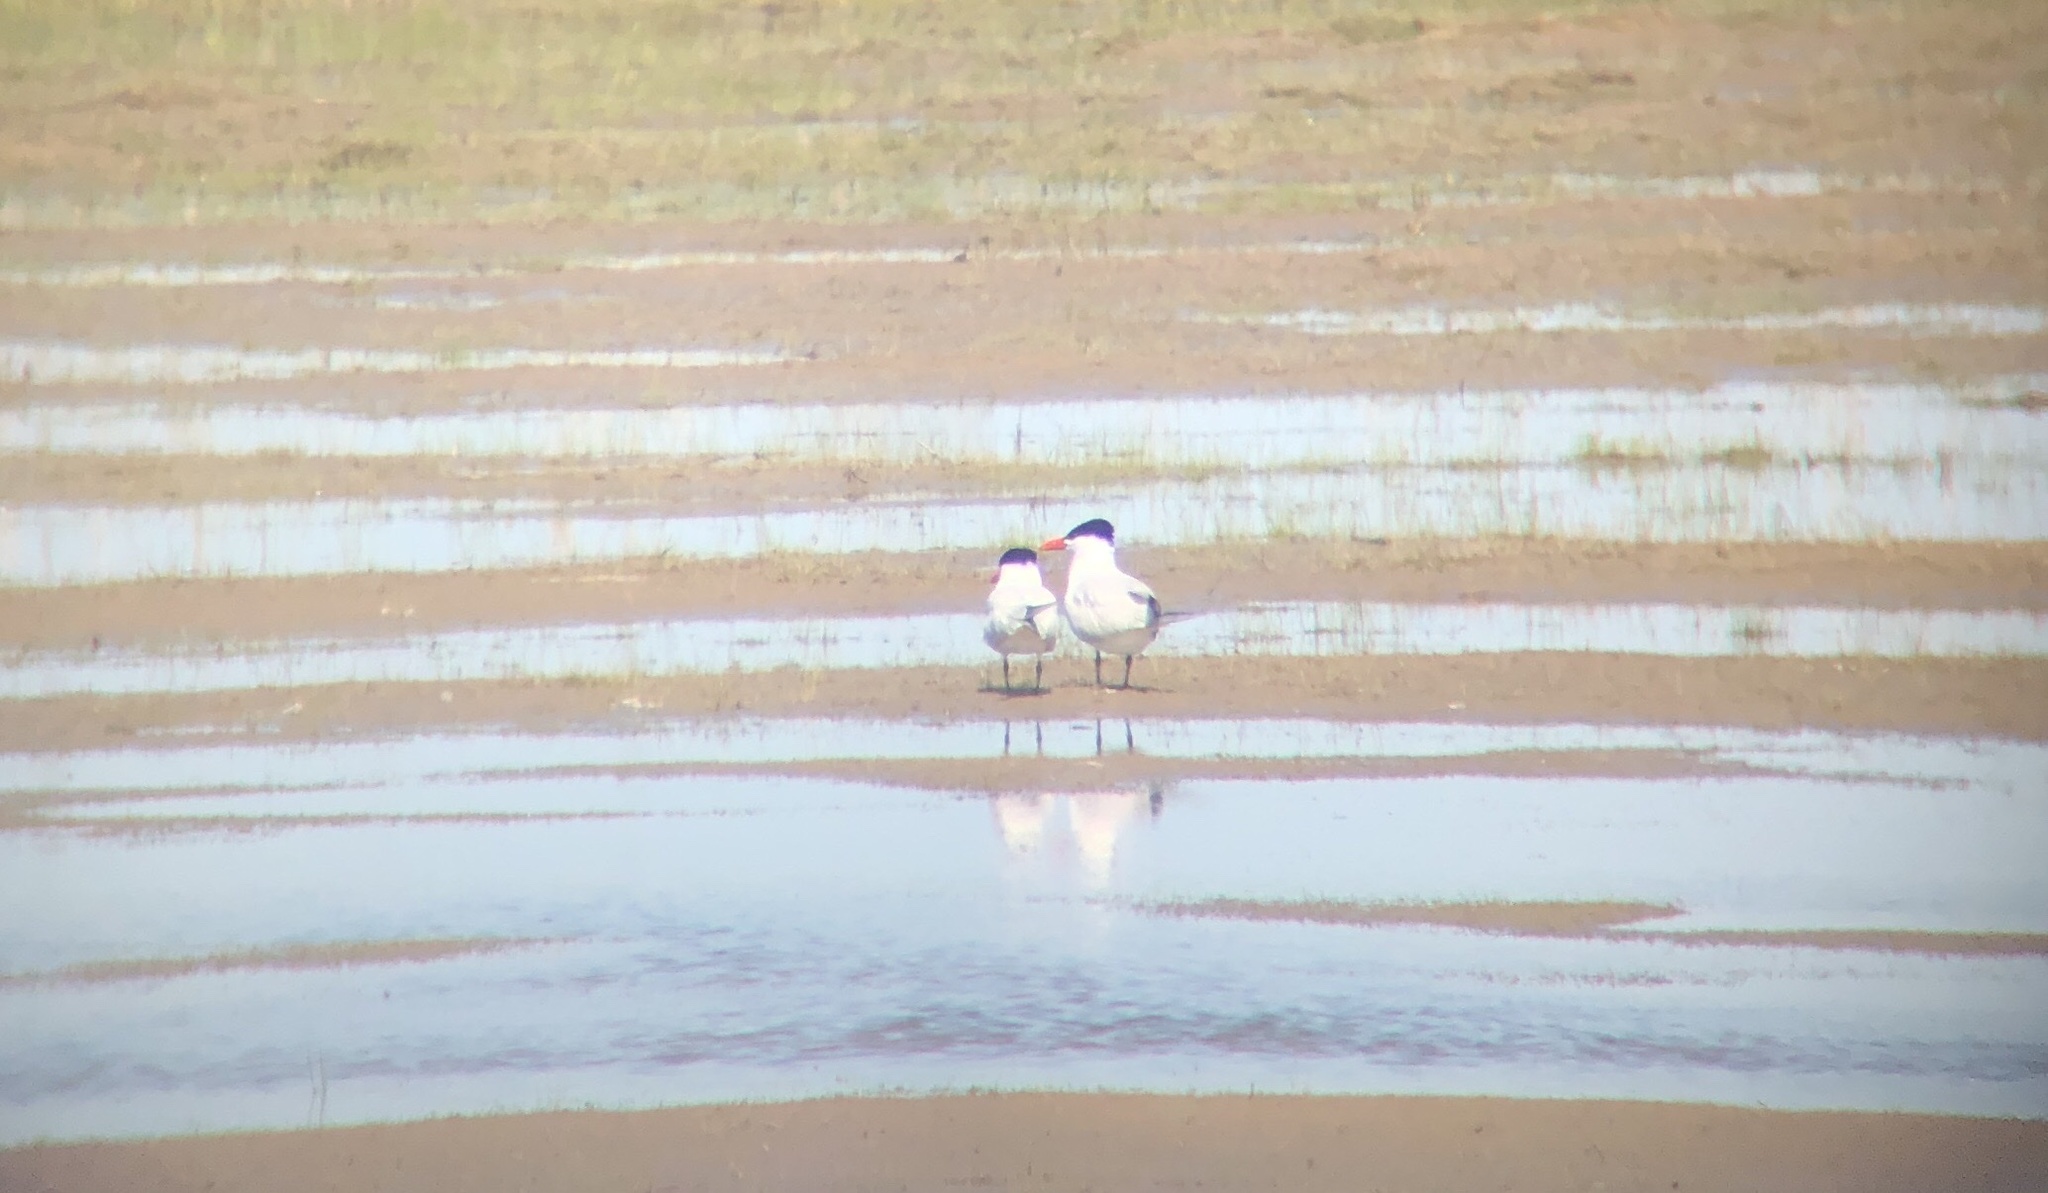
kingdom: Animalia
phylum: Chordata
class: Aves
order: Charadriiformes
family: Laridae
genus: Hydroprogne
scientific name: Hydroprogne caspia
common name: Caspian tern
